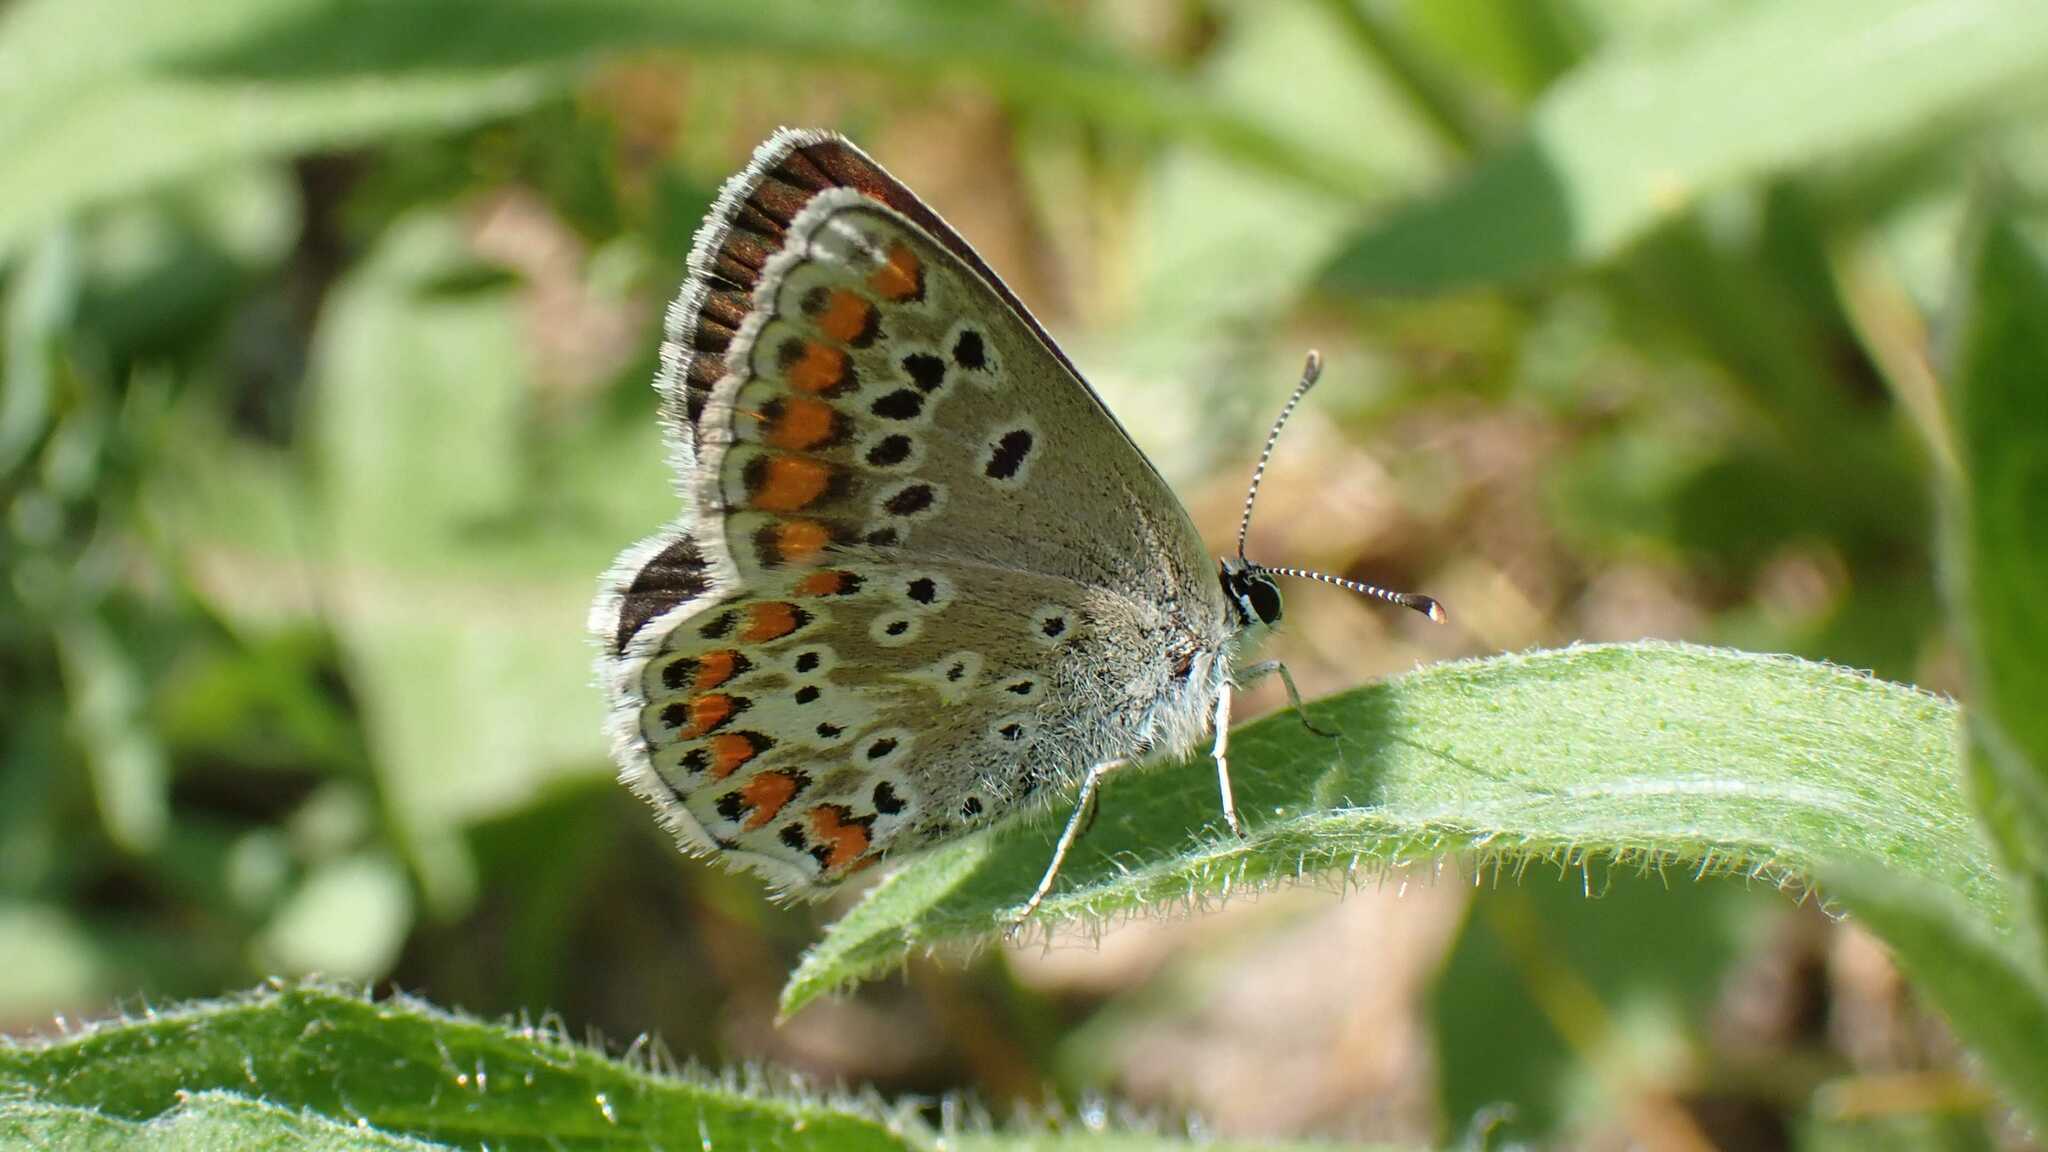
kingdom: Animalia
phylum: Arthropoda
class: Insecta
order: Lepidoptera
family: Lycaenidae
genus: Aricia
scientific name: Aricia agestis
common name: Brown argus
